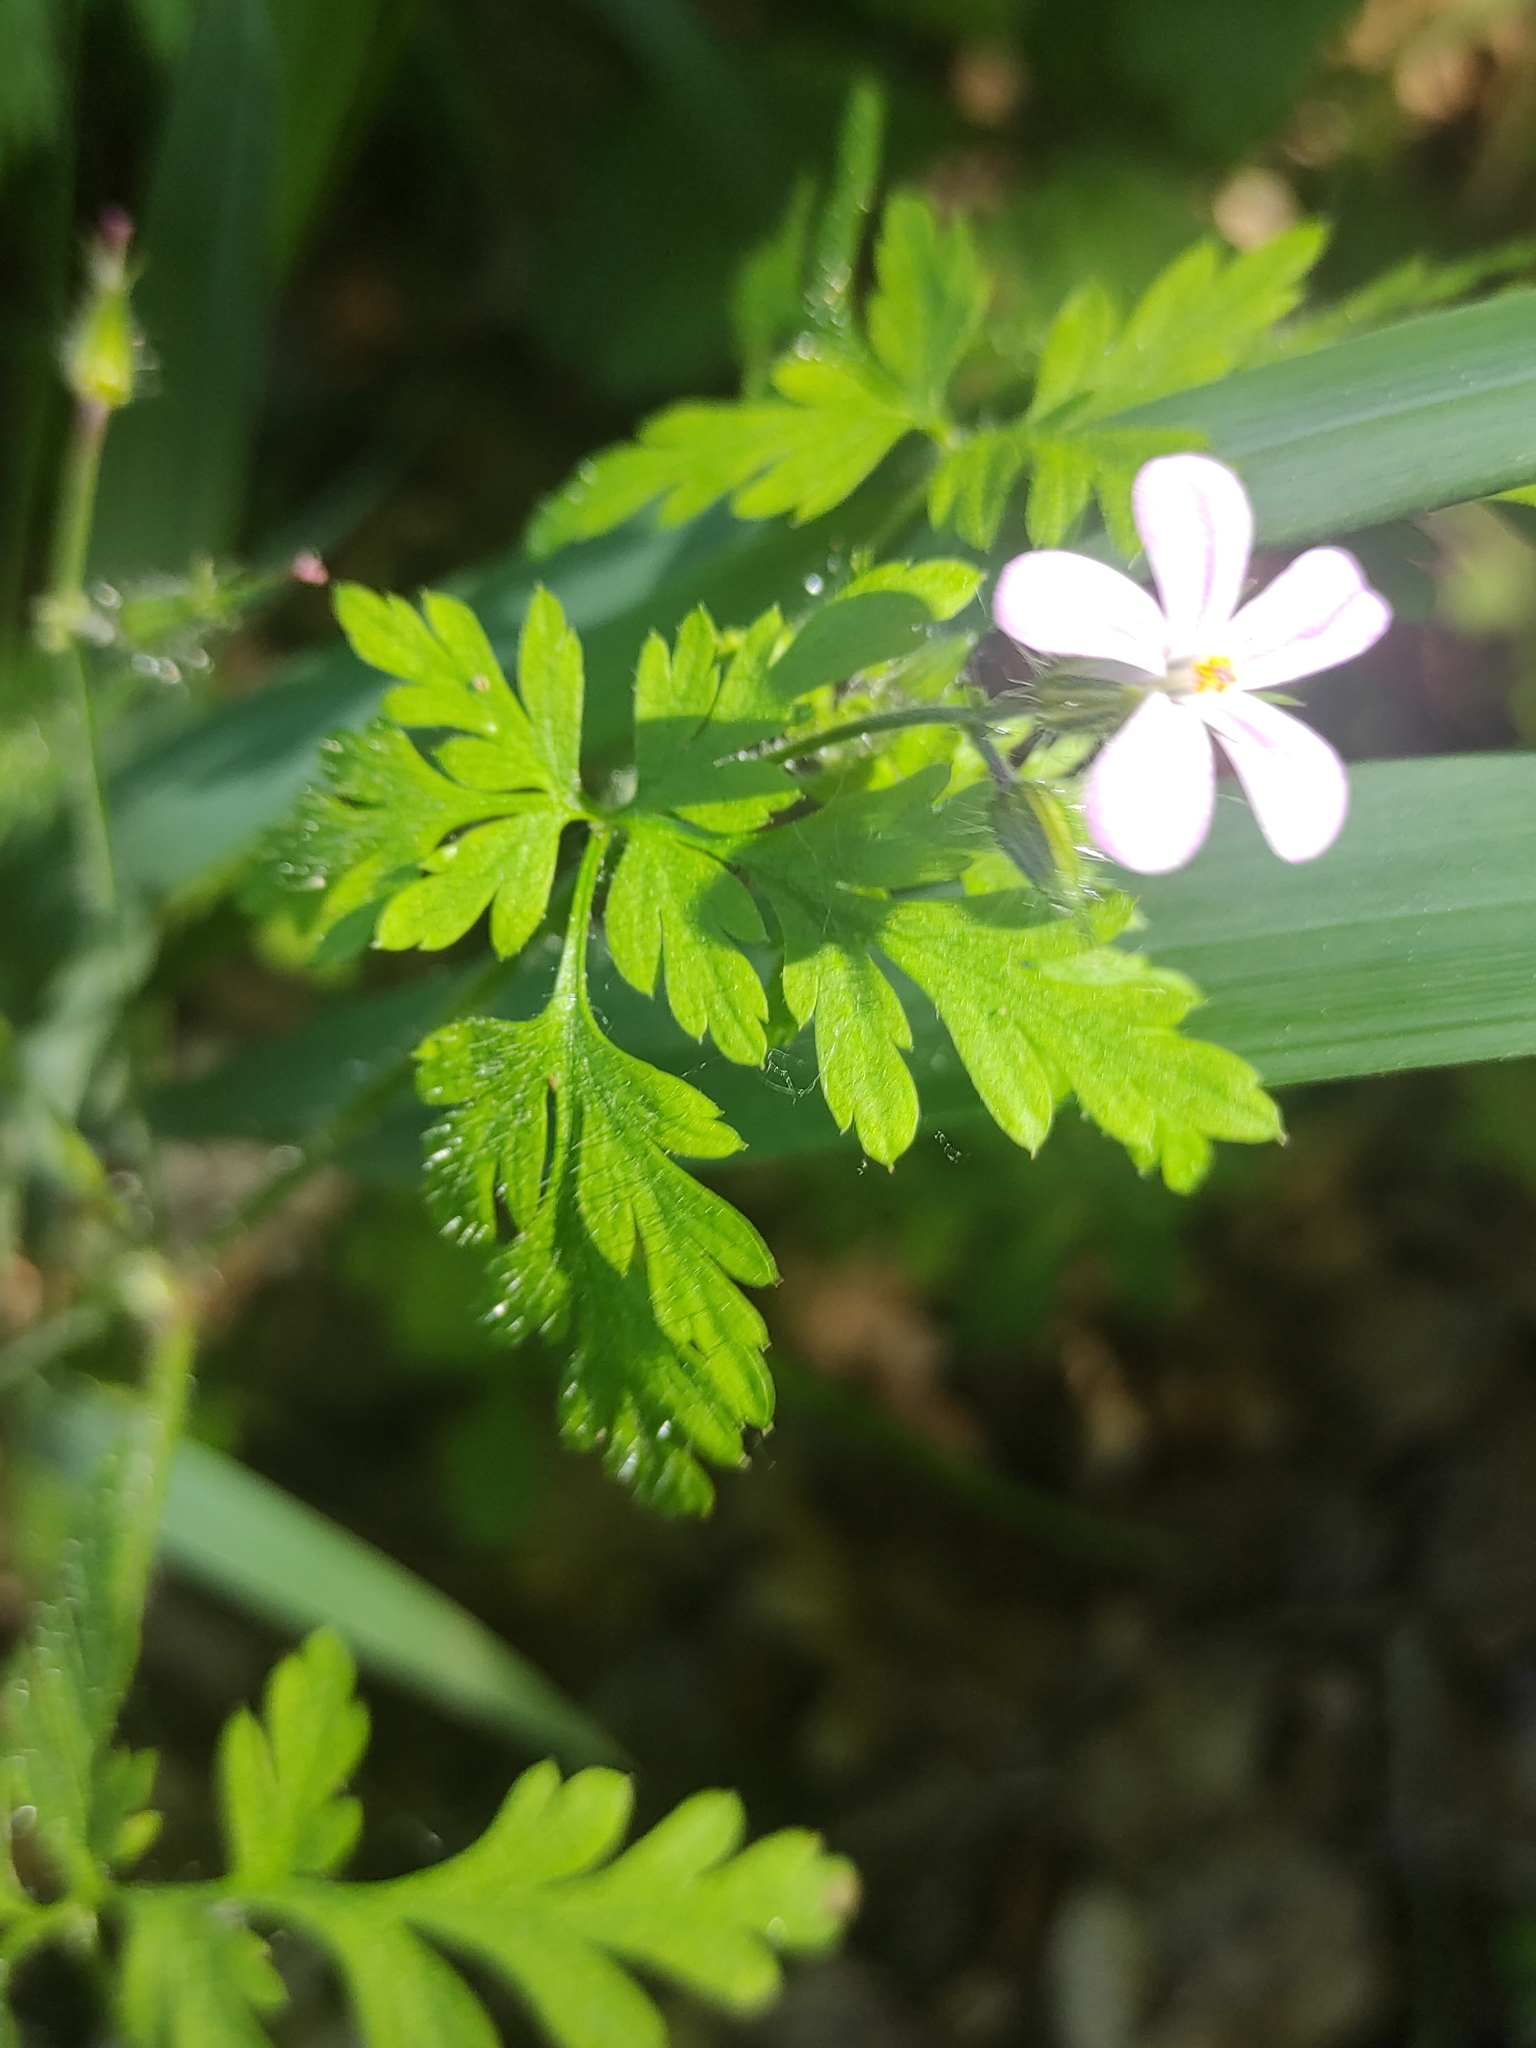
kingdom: Plantae
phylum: Tracheophyta
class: Magnoliopsida
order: Geraniales
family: Geraniaceae
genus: Geranium
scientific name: Geranium robertianum
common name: Herb-robert
